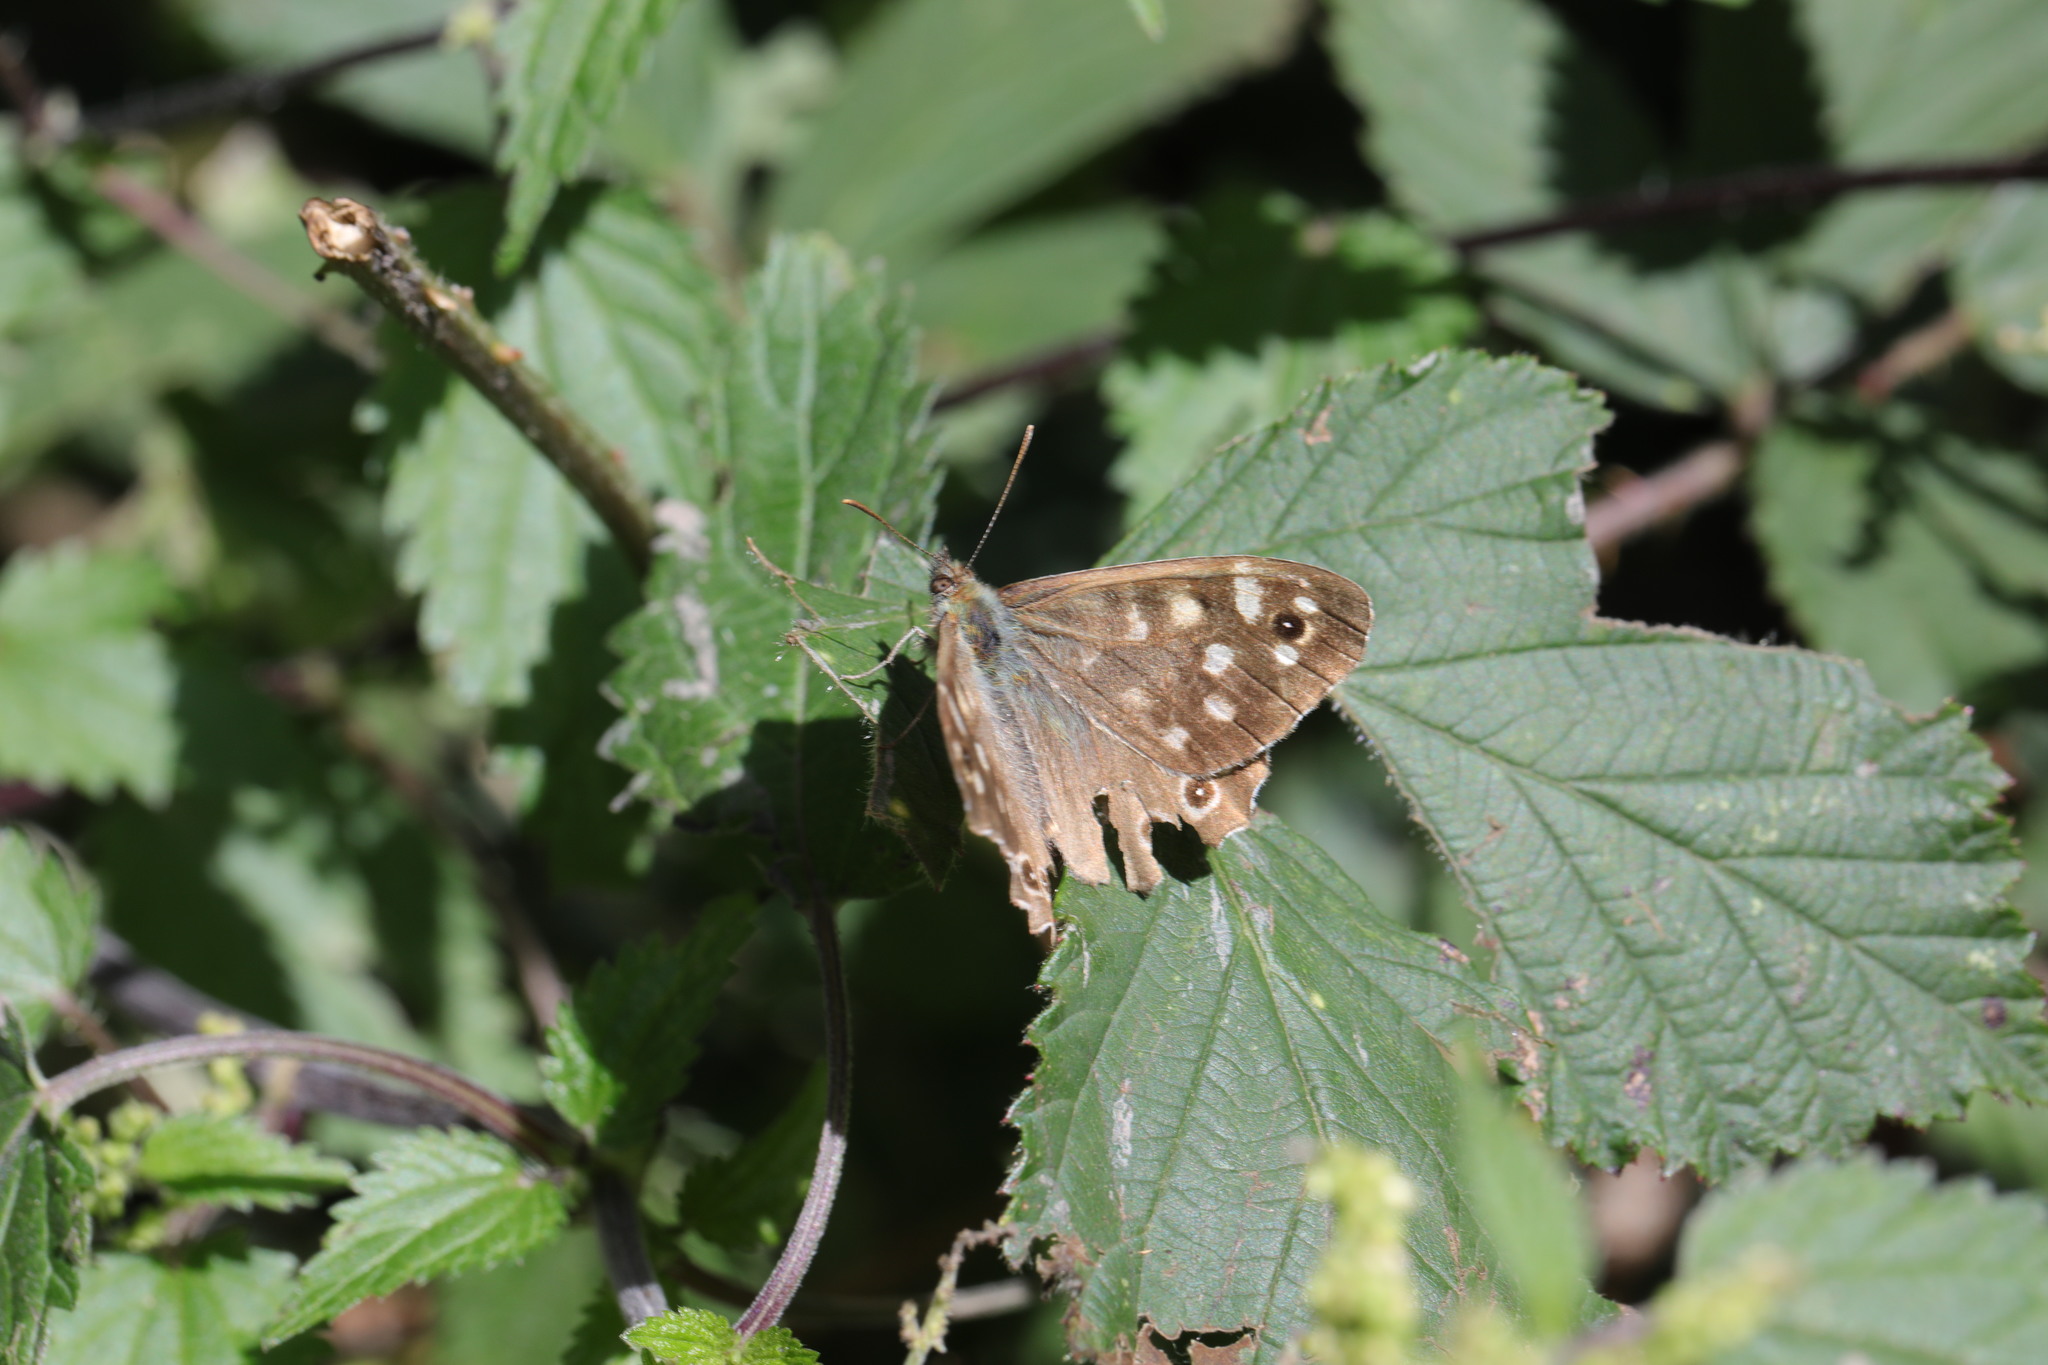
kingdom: Animalia
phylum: Arthropoda
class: Insecta
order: Lepidoptera
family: Nymphalidae
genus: Pararge
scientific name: Pararge aegeria
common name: Speckled wood
